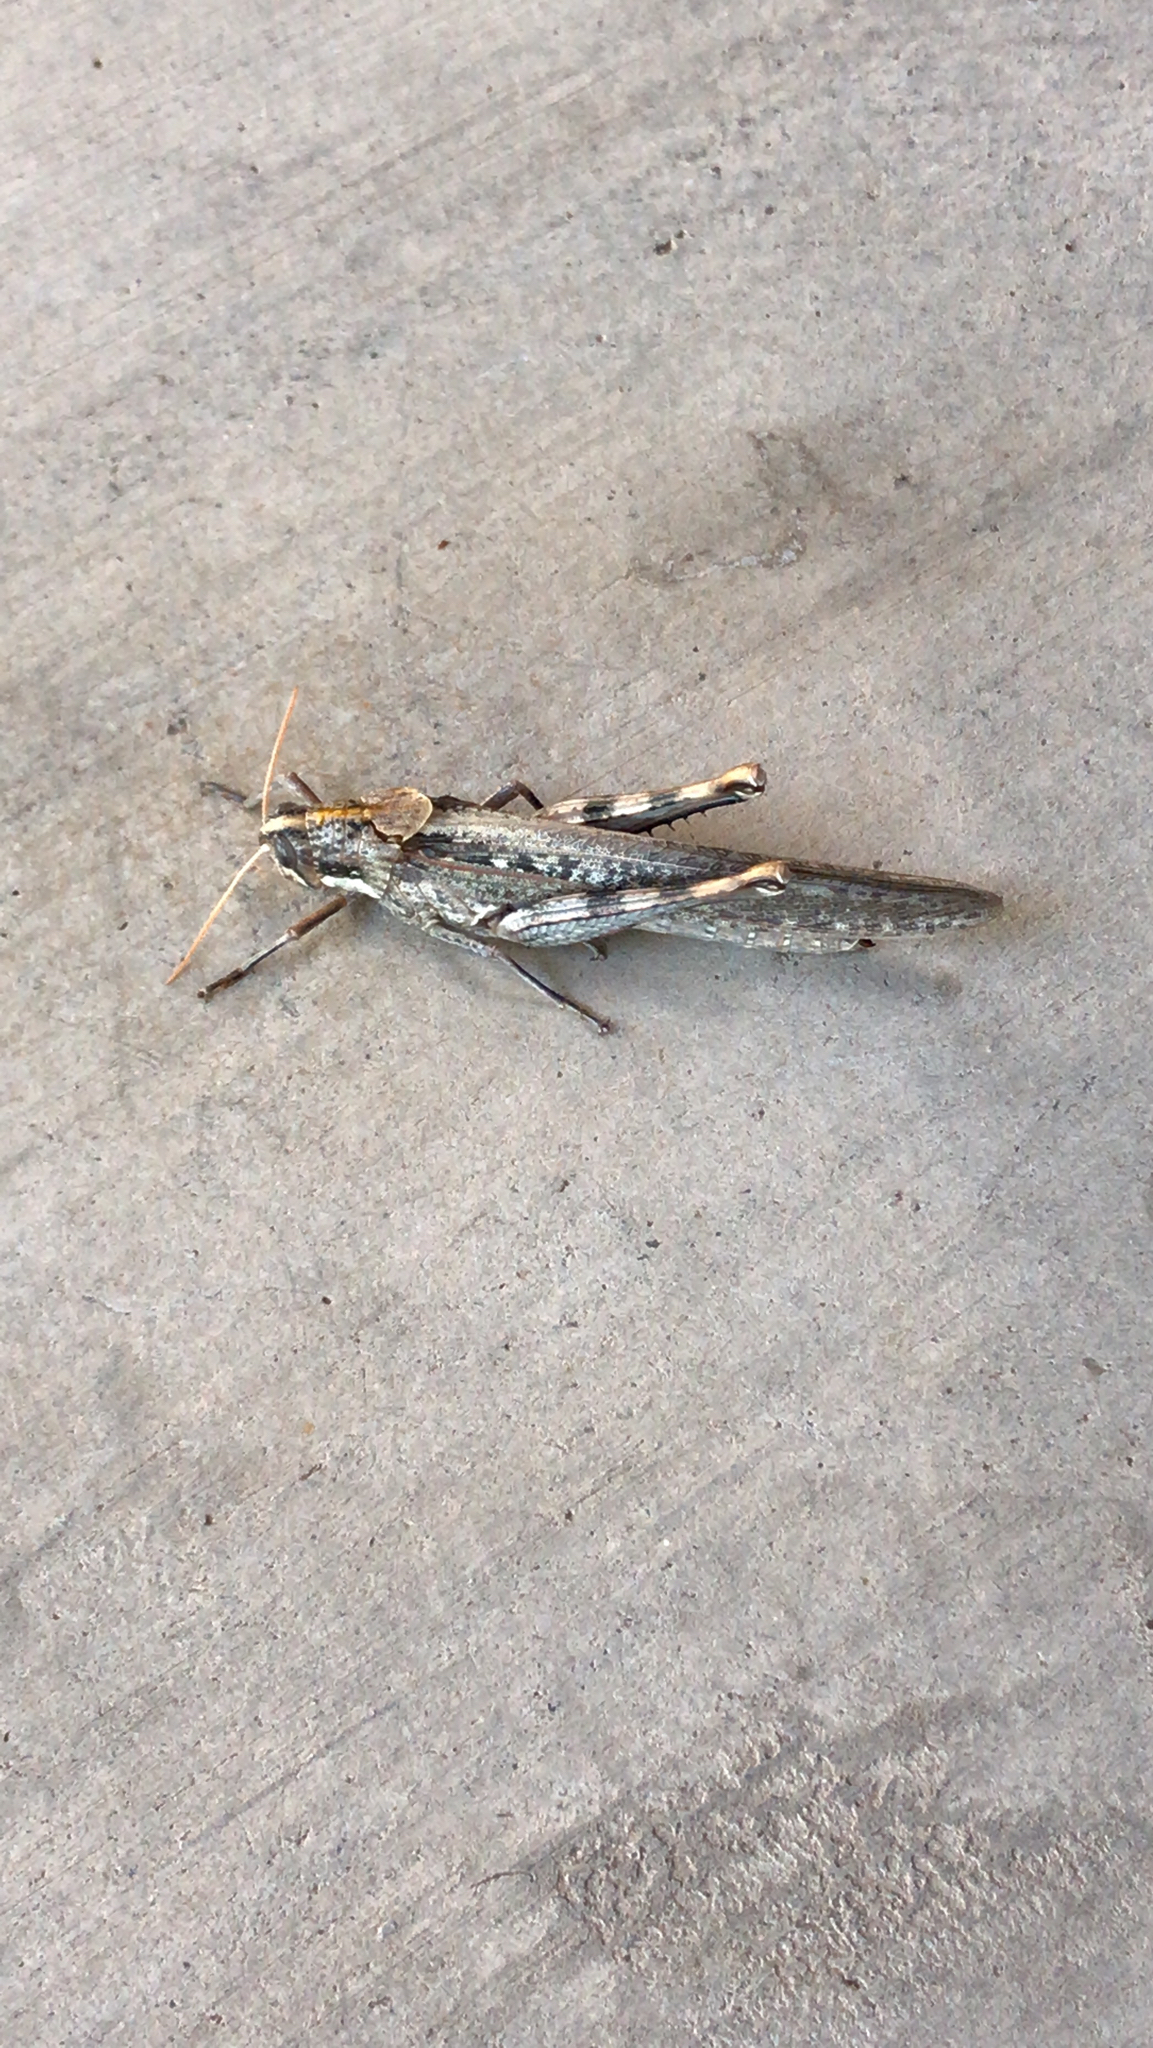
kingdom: Animalia
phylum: Arthropoda
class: Insecta
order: Orthoptera
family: Acrididae
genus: Schistocerca
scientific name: Schistocerca nitens
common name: Vagrant grasshopper
